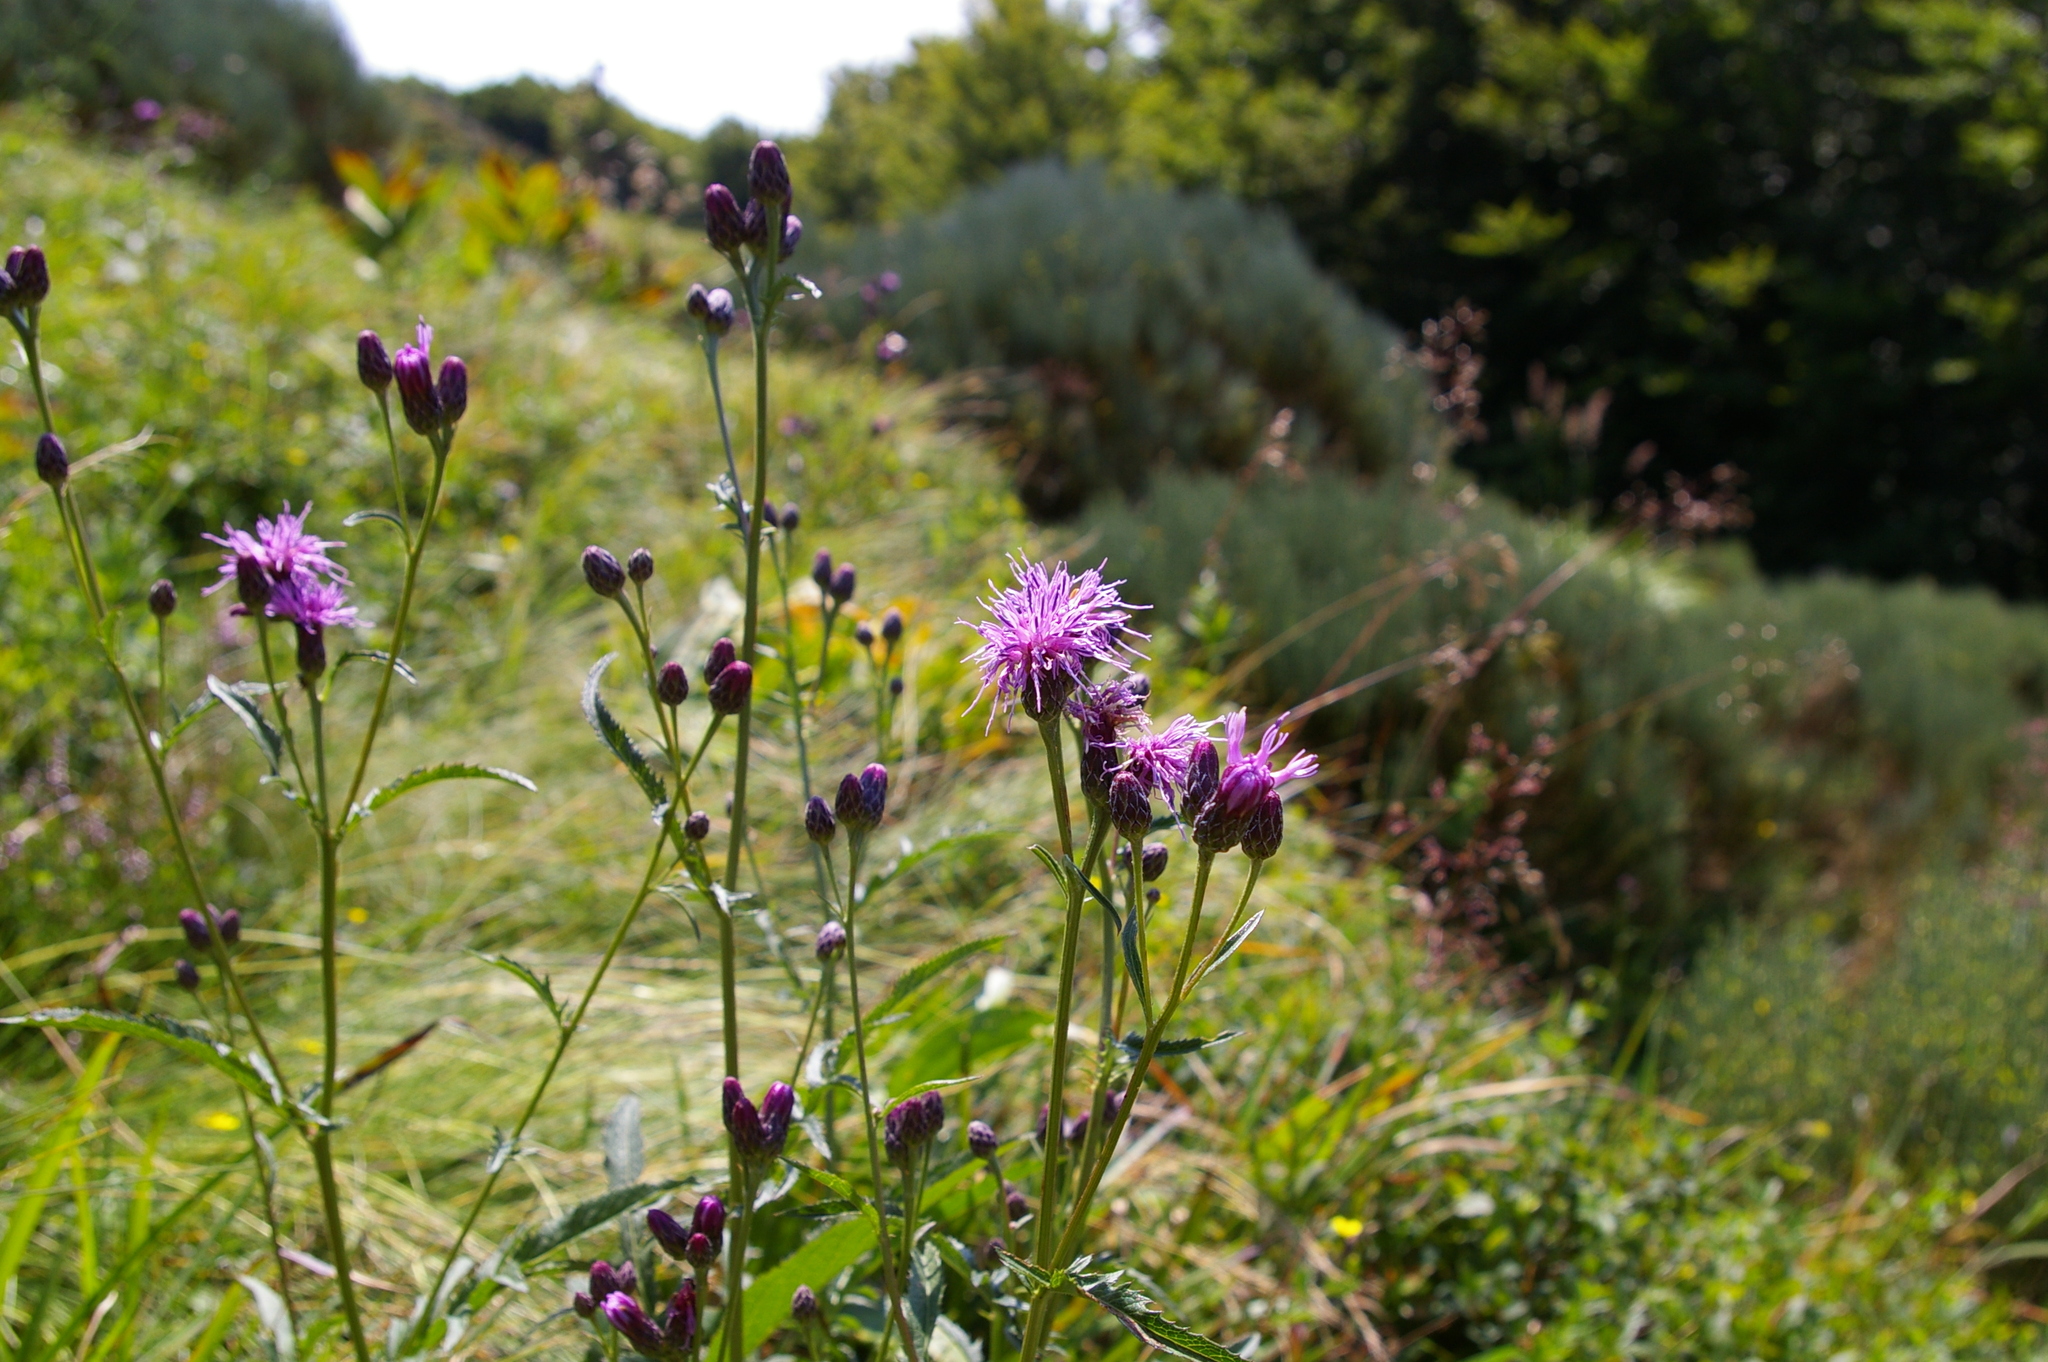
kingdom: Plantae
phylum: Tracheophyta
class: Magnoliopsida
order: Asterales
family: Asteraceae
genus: Serratula
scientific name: Serratula tinctoria
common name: Saw-wort
